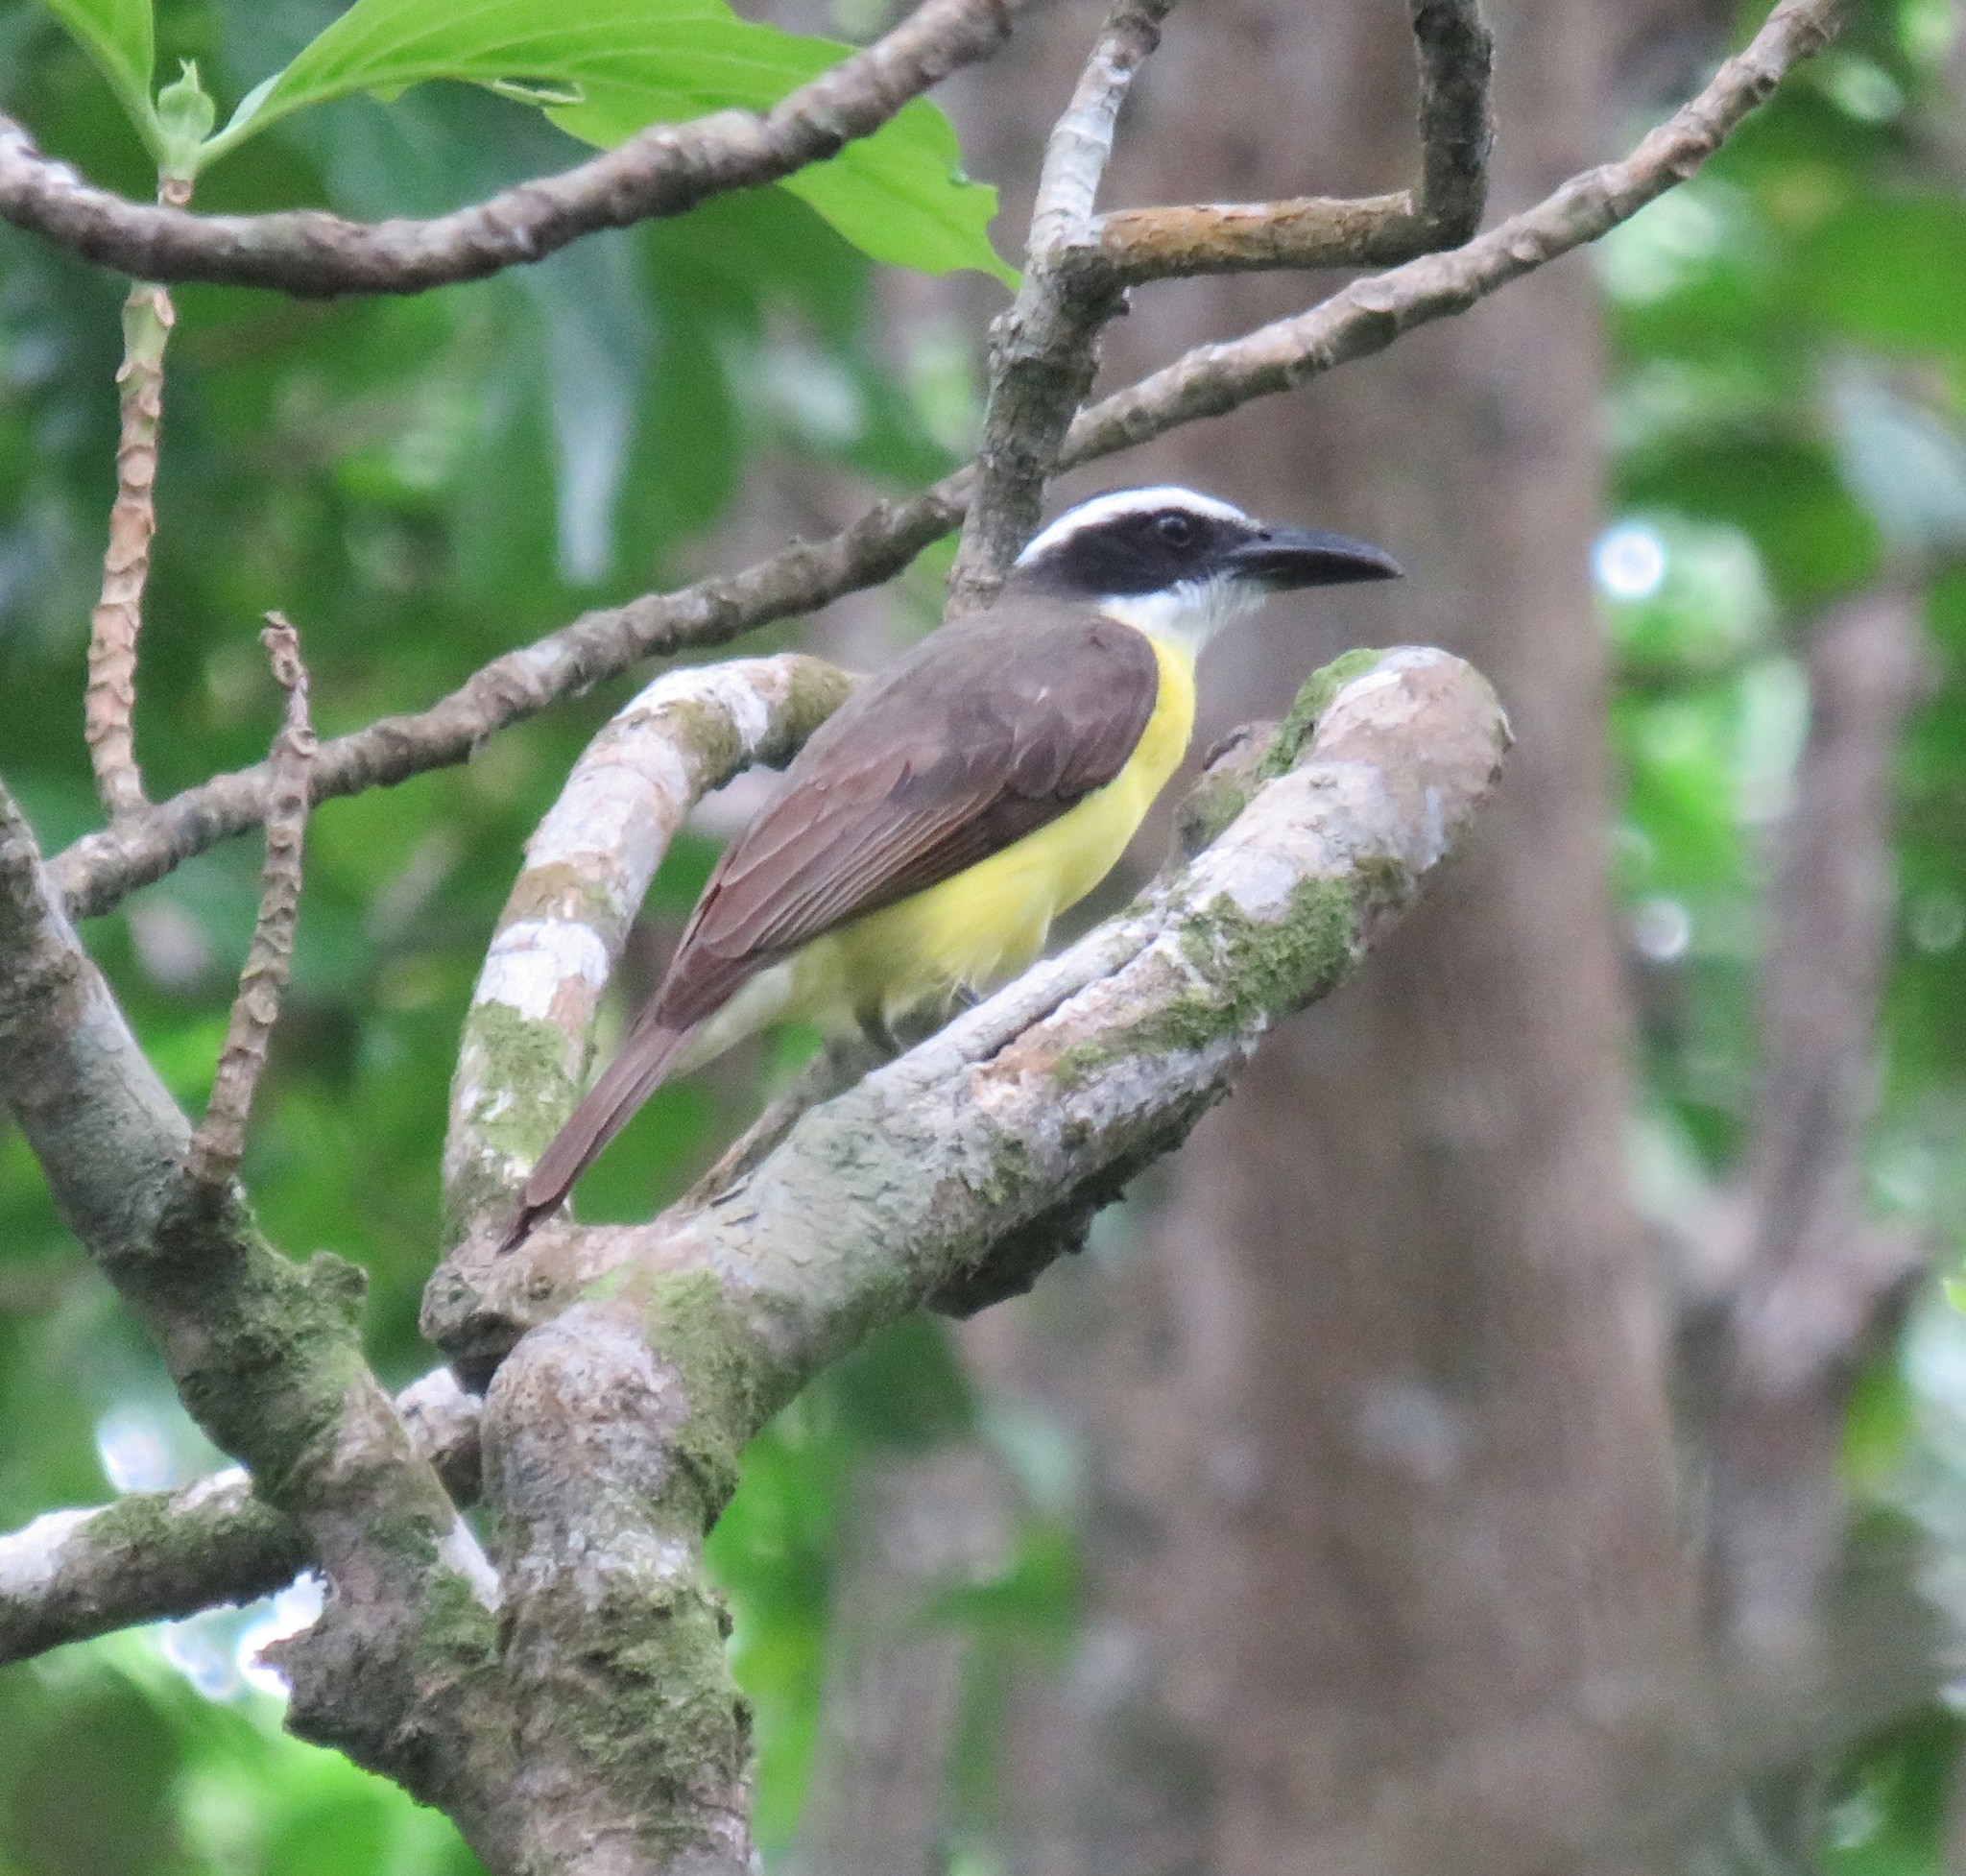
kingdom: Animalia
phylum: Chordata
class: Aves
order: Passeriformes
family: Tyrannidae
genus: Megarynchus
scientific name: Megarynchus pitangua
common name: Boat-billed flycatcher
